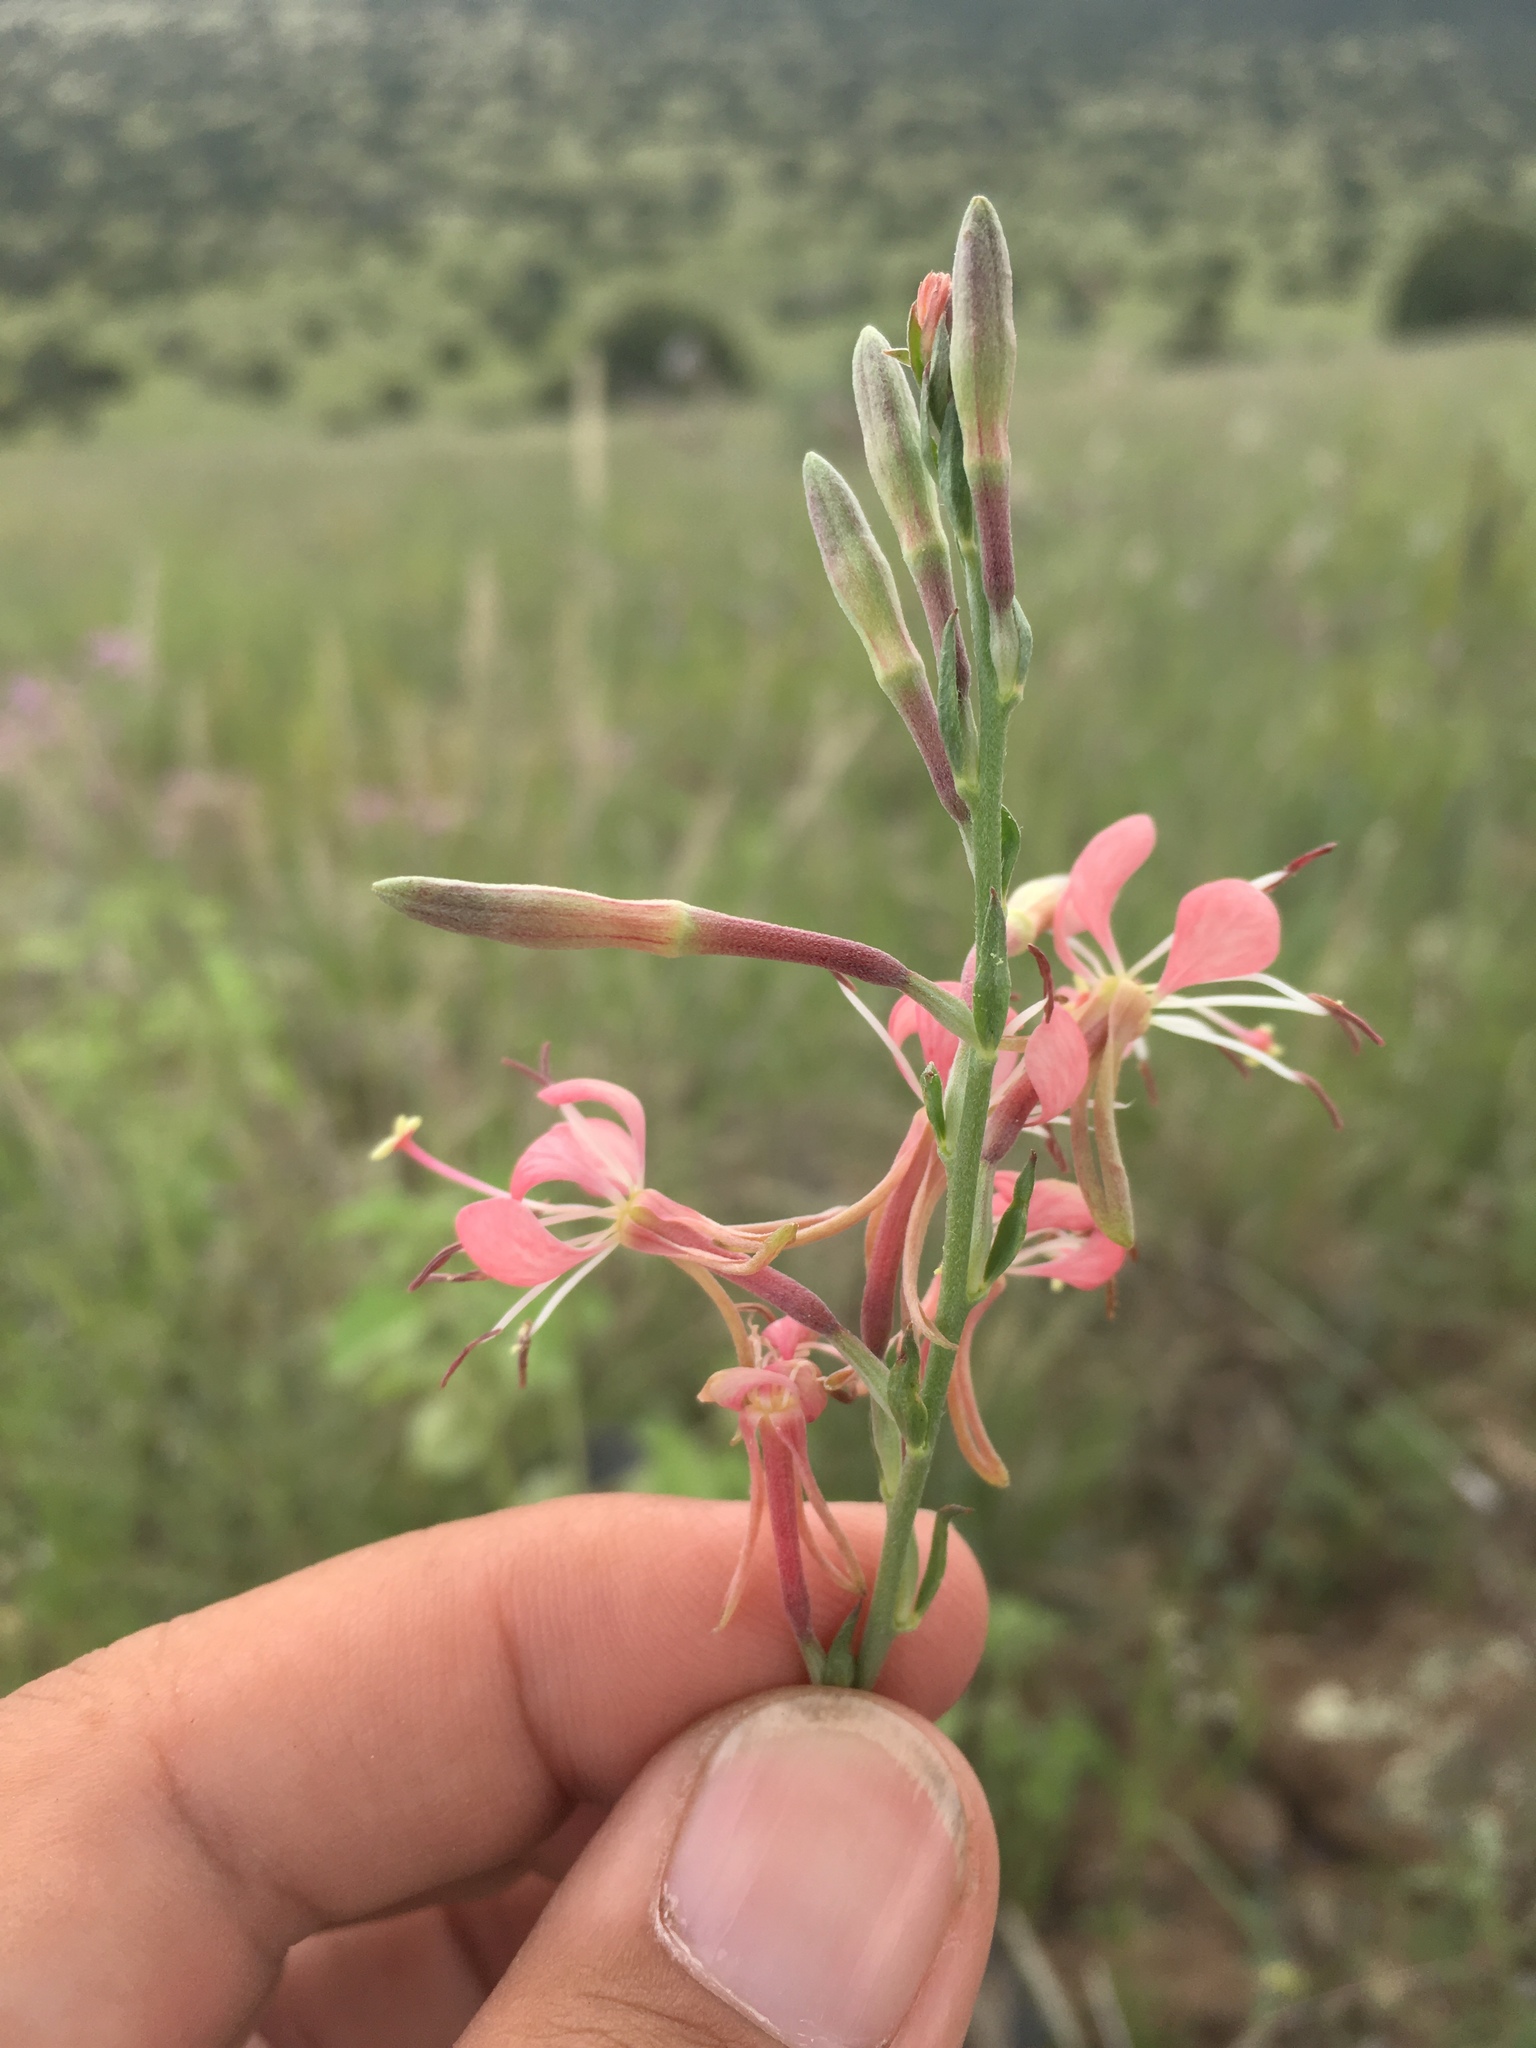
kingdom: Plantae
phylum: Tracheophyta
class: Magnoliopsida
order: Myrtales
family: Onagraceae
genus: Oenothera
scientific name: Oenothera suffrutescens
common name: Scarlet beeblossom
